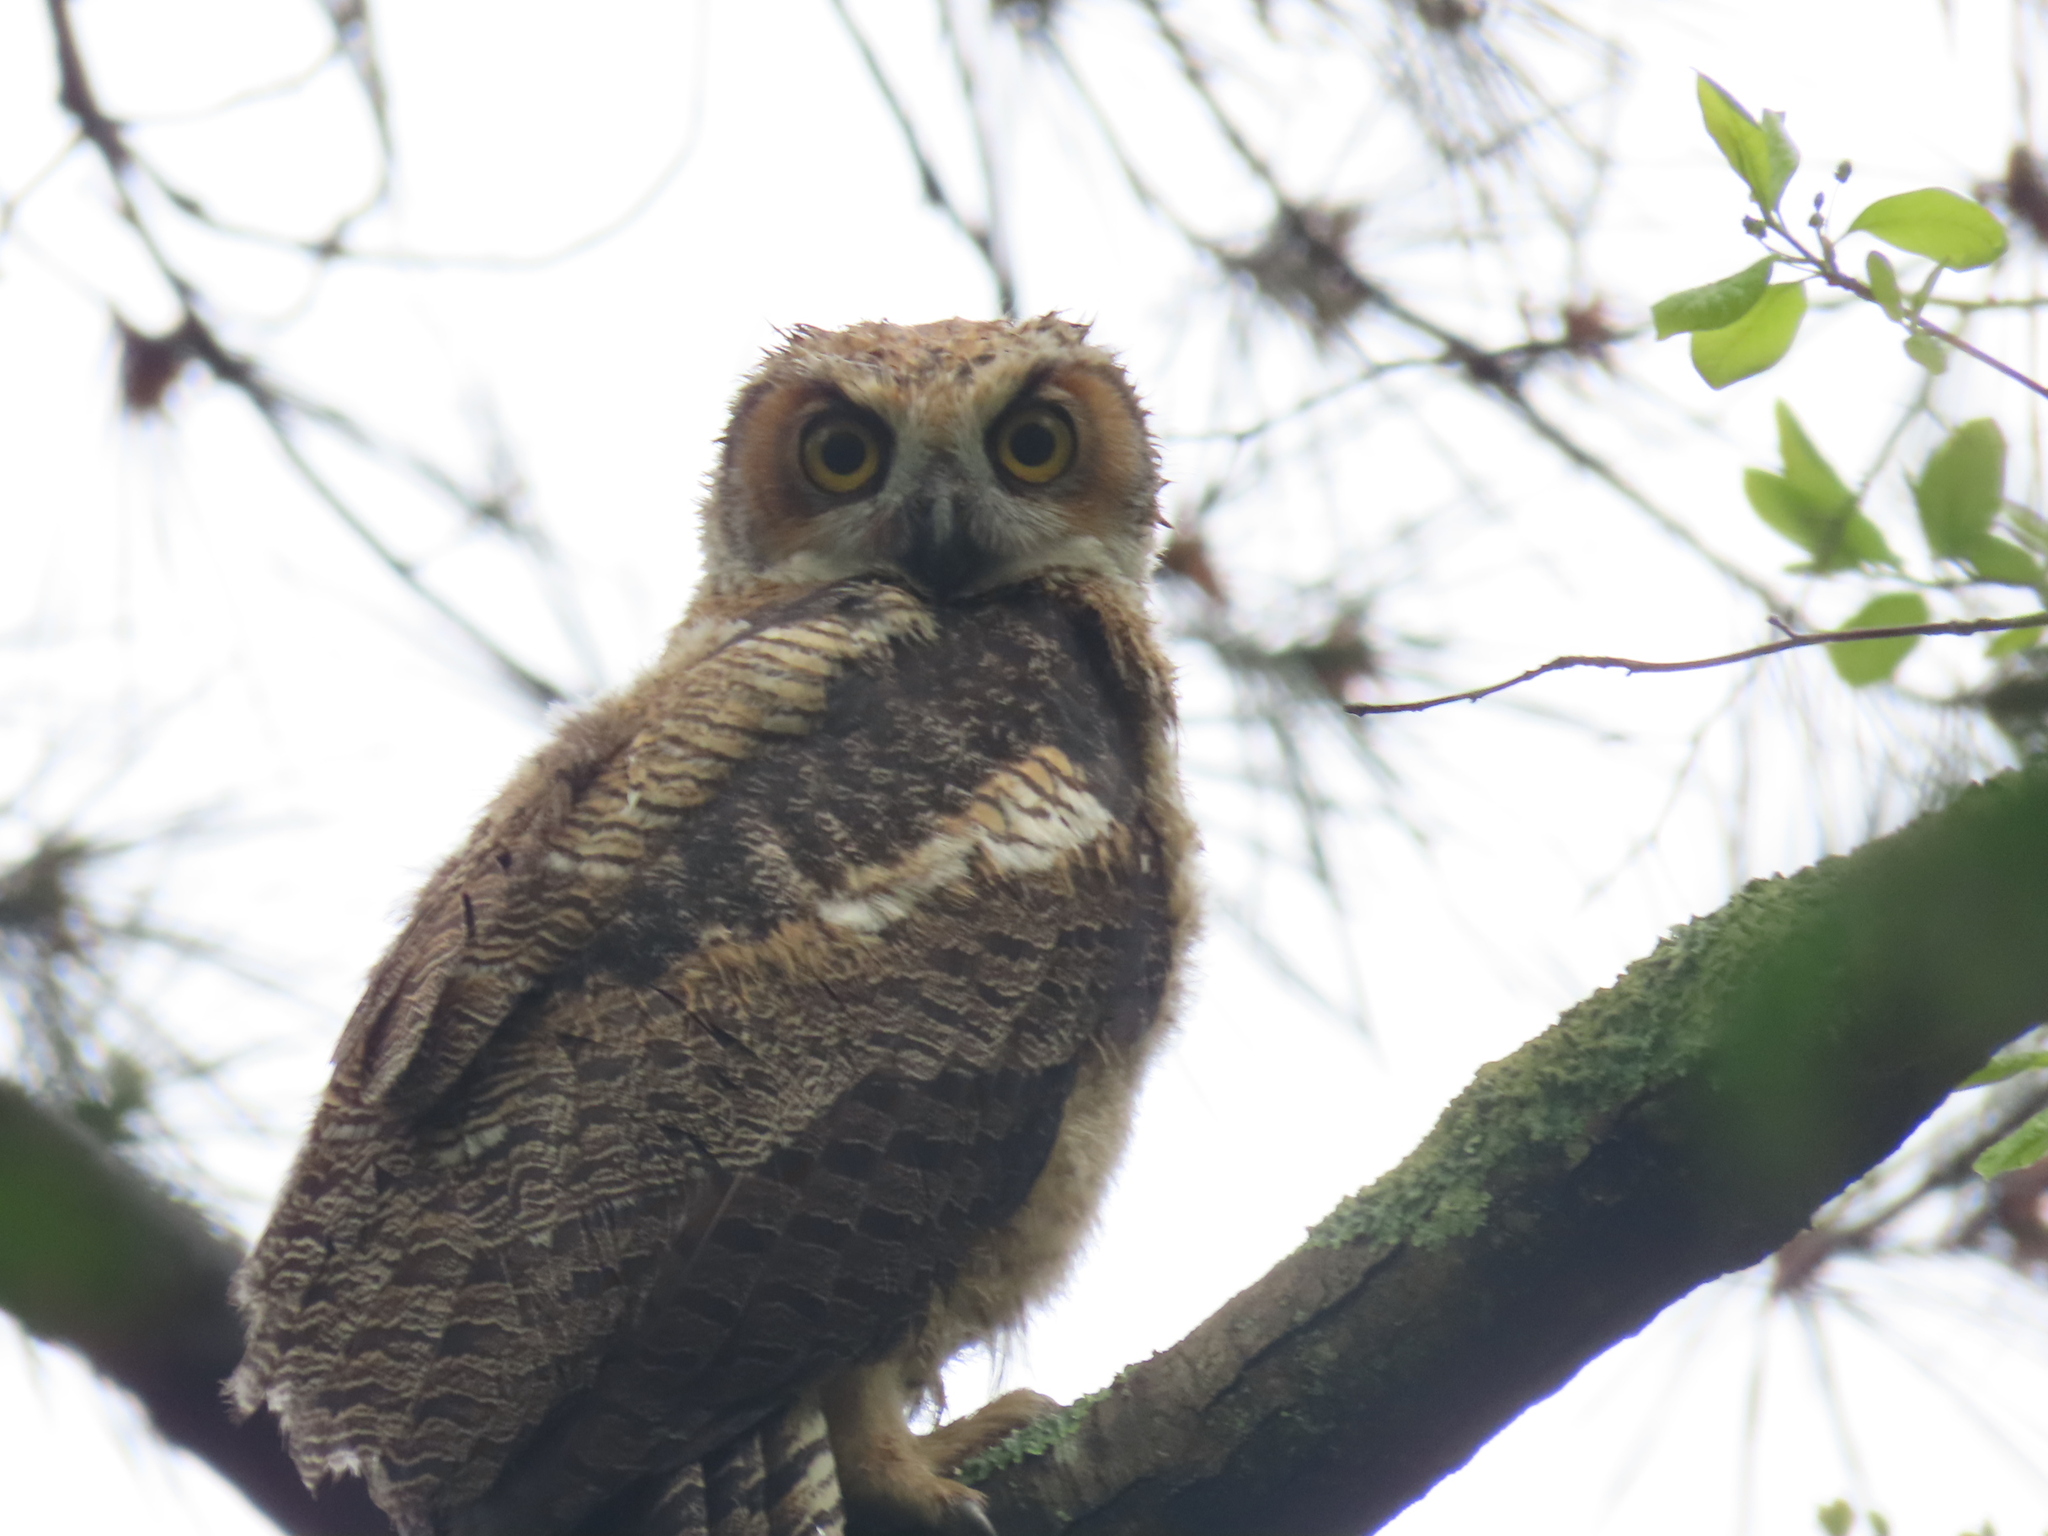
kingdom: Animalia
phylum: Chordata
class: Aves
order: Strigiformes
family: Strigidae
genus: Bubo
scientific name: Bubo virginianus
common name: Great horned owl
